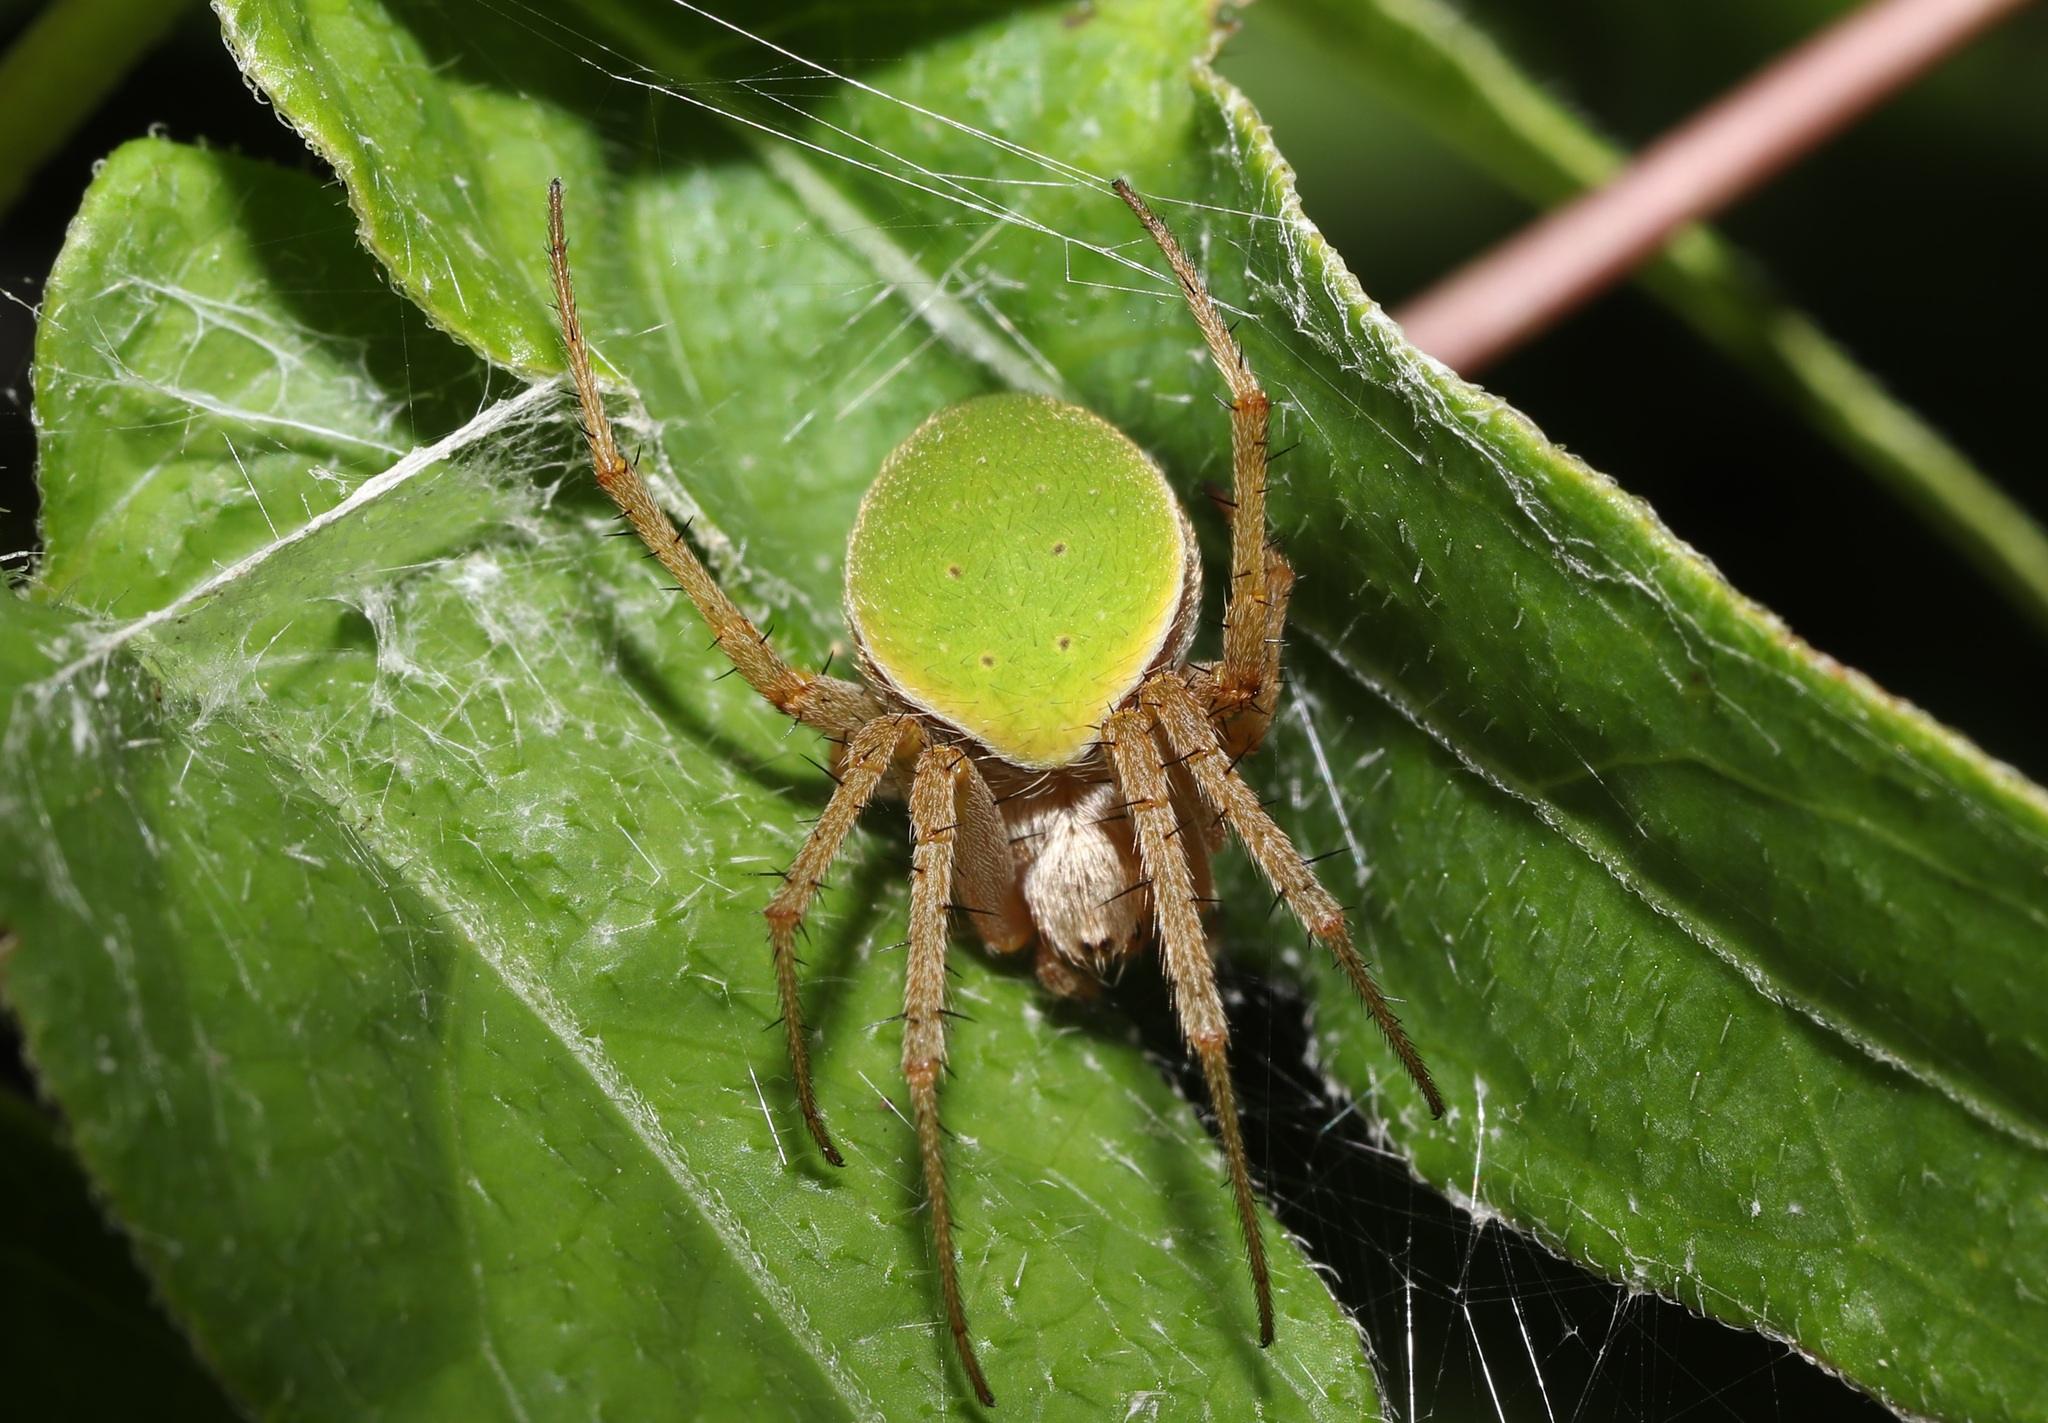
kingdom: Animalia
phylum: Arthropoda
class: Arachnida
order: Araneae
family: Araneidae
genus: Neoscona
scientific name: Neoscona mellotteei
